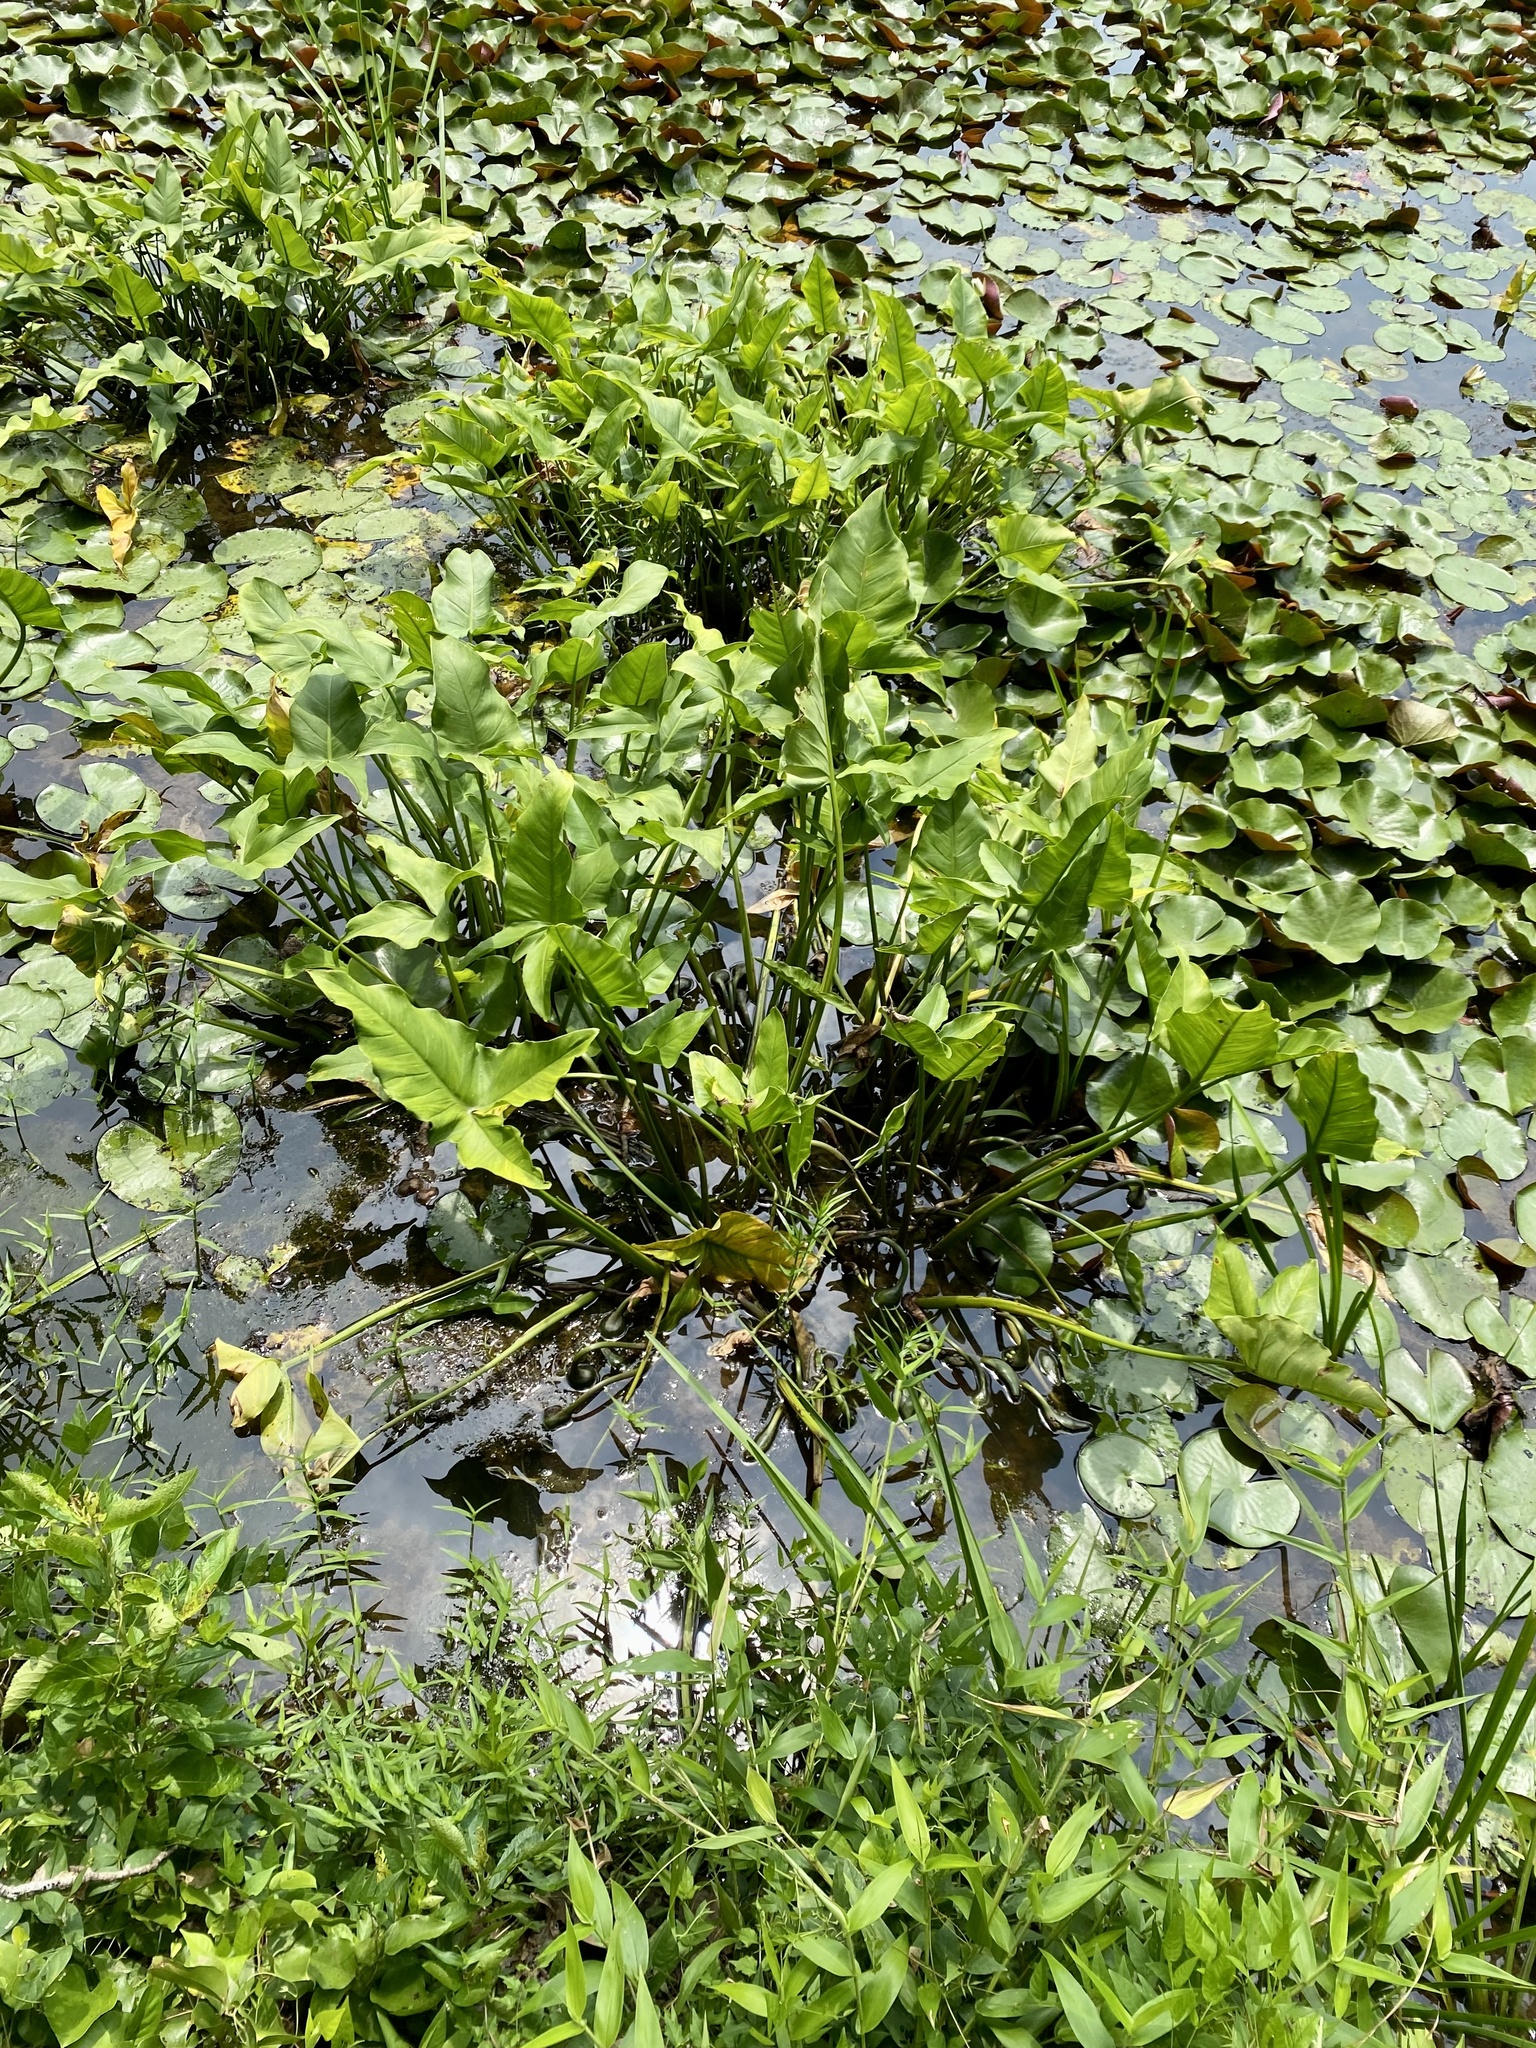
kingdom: Plantae
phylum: Tracheophyta
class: Liliopsida
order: Alismatales
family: Araceae
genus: Peltandra
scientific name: Peltandra virginica
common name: Arrow arum
